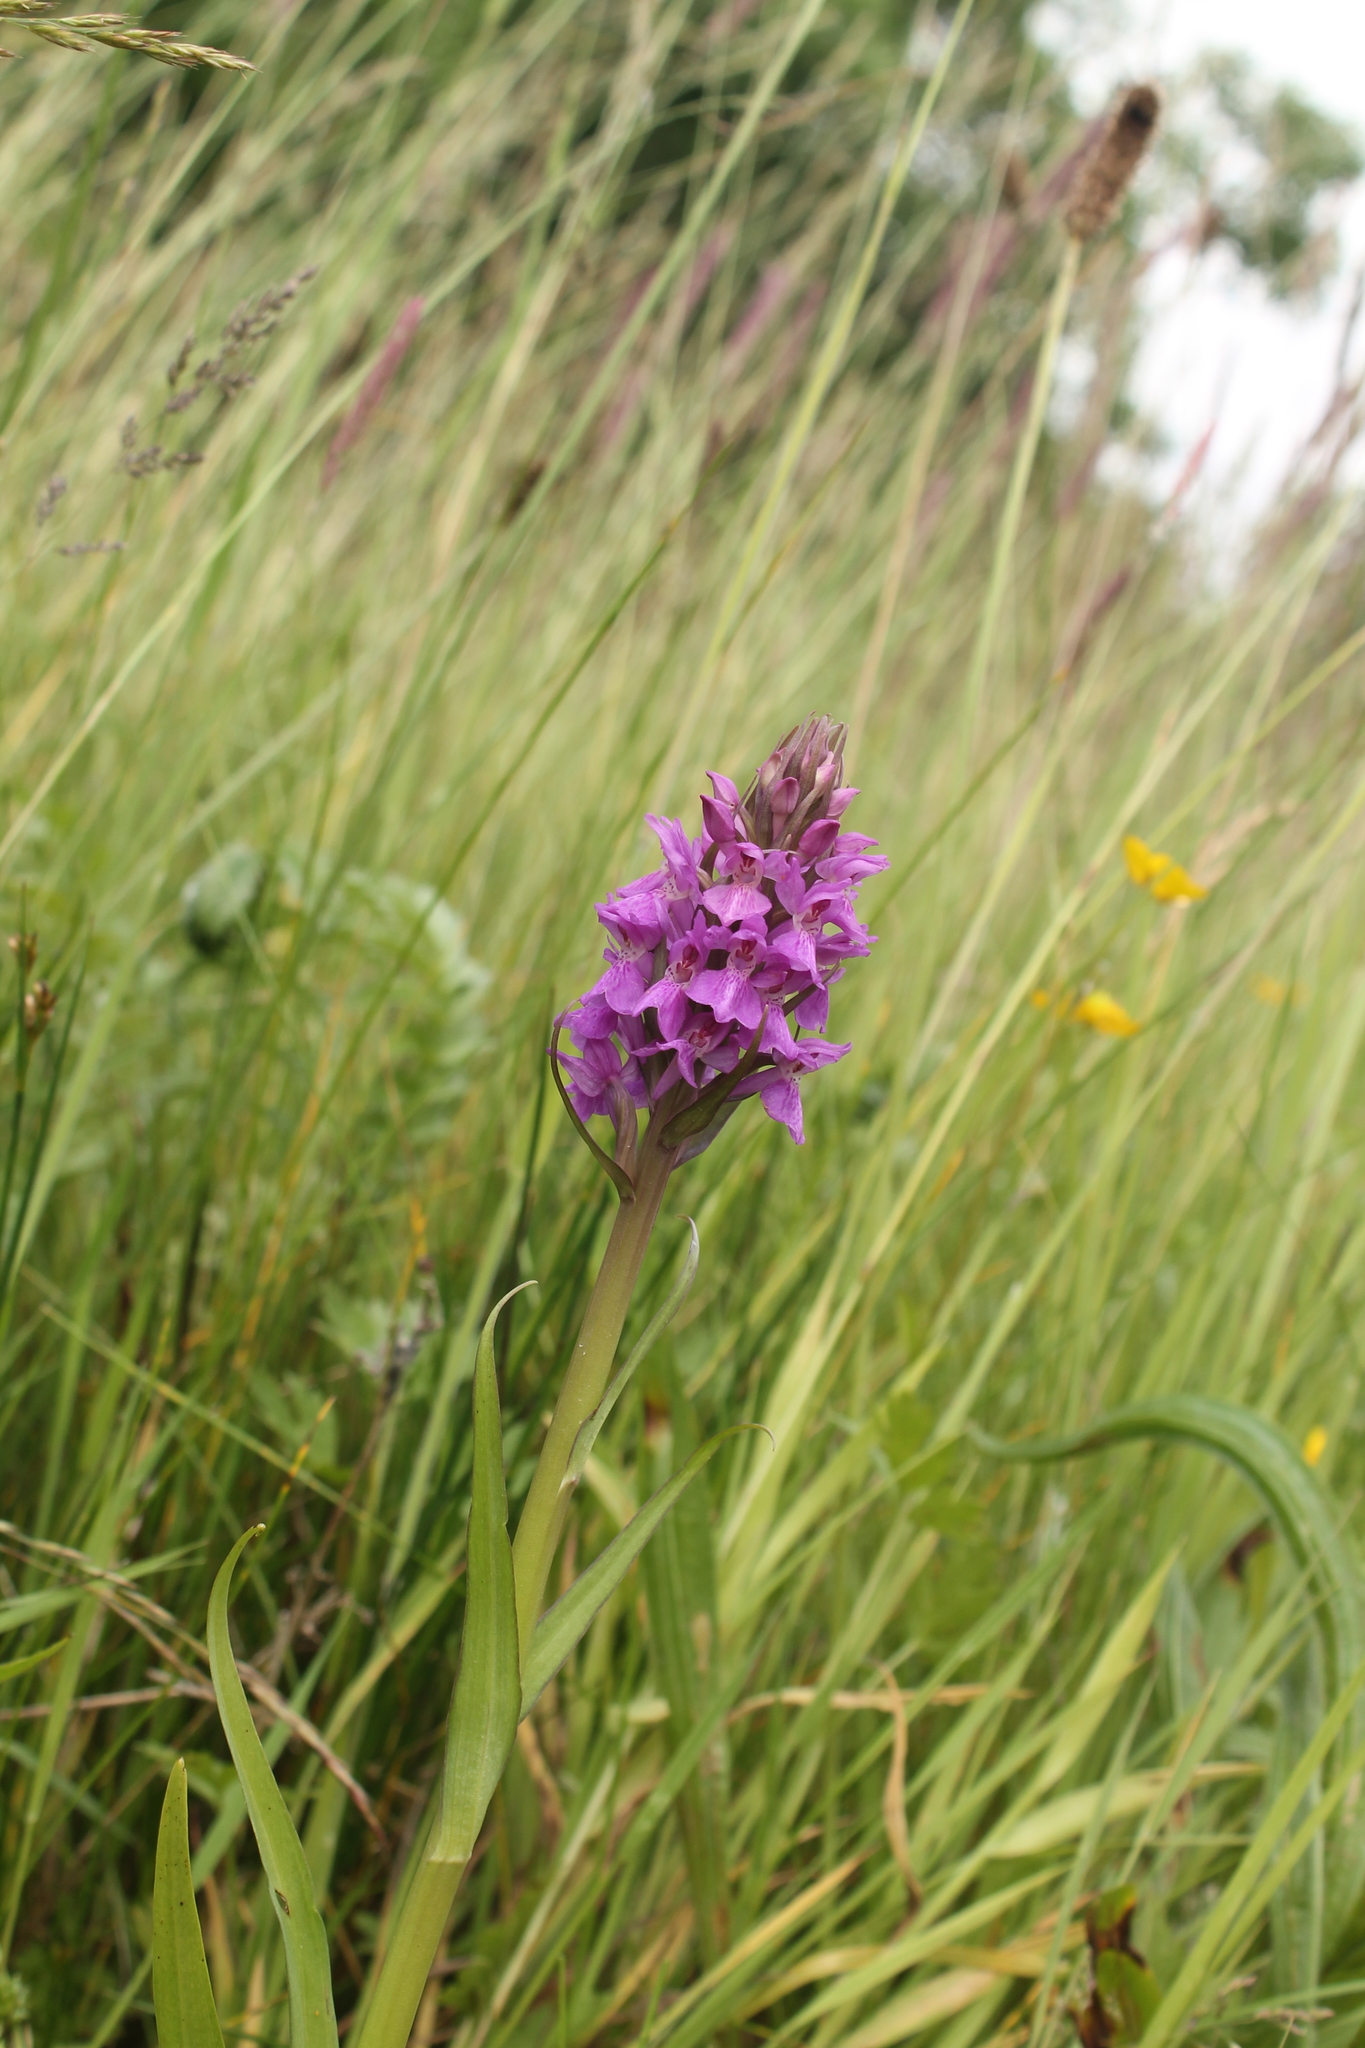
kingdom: Plantae
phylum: Tracheophyta
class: Liliopsida
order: Asparagales
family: Orchidaceae
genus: Dactylorhiza
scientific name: Dactylorhiza majalis
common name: Marsh orchid
